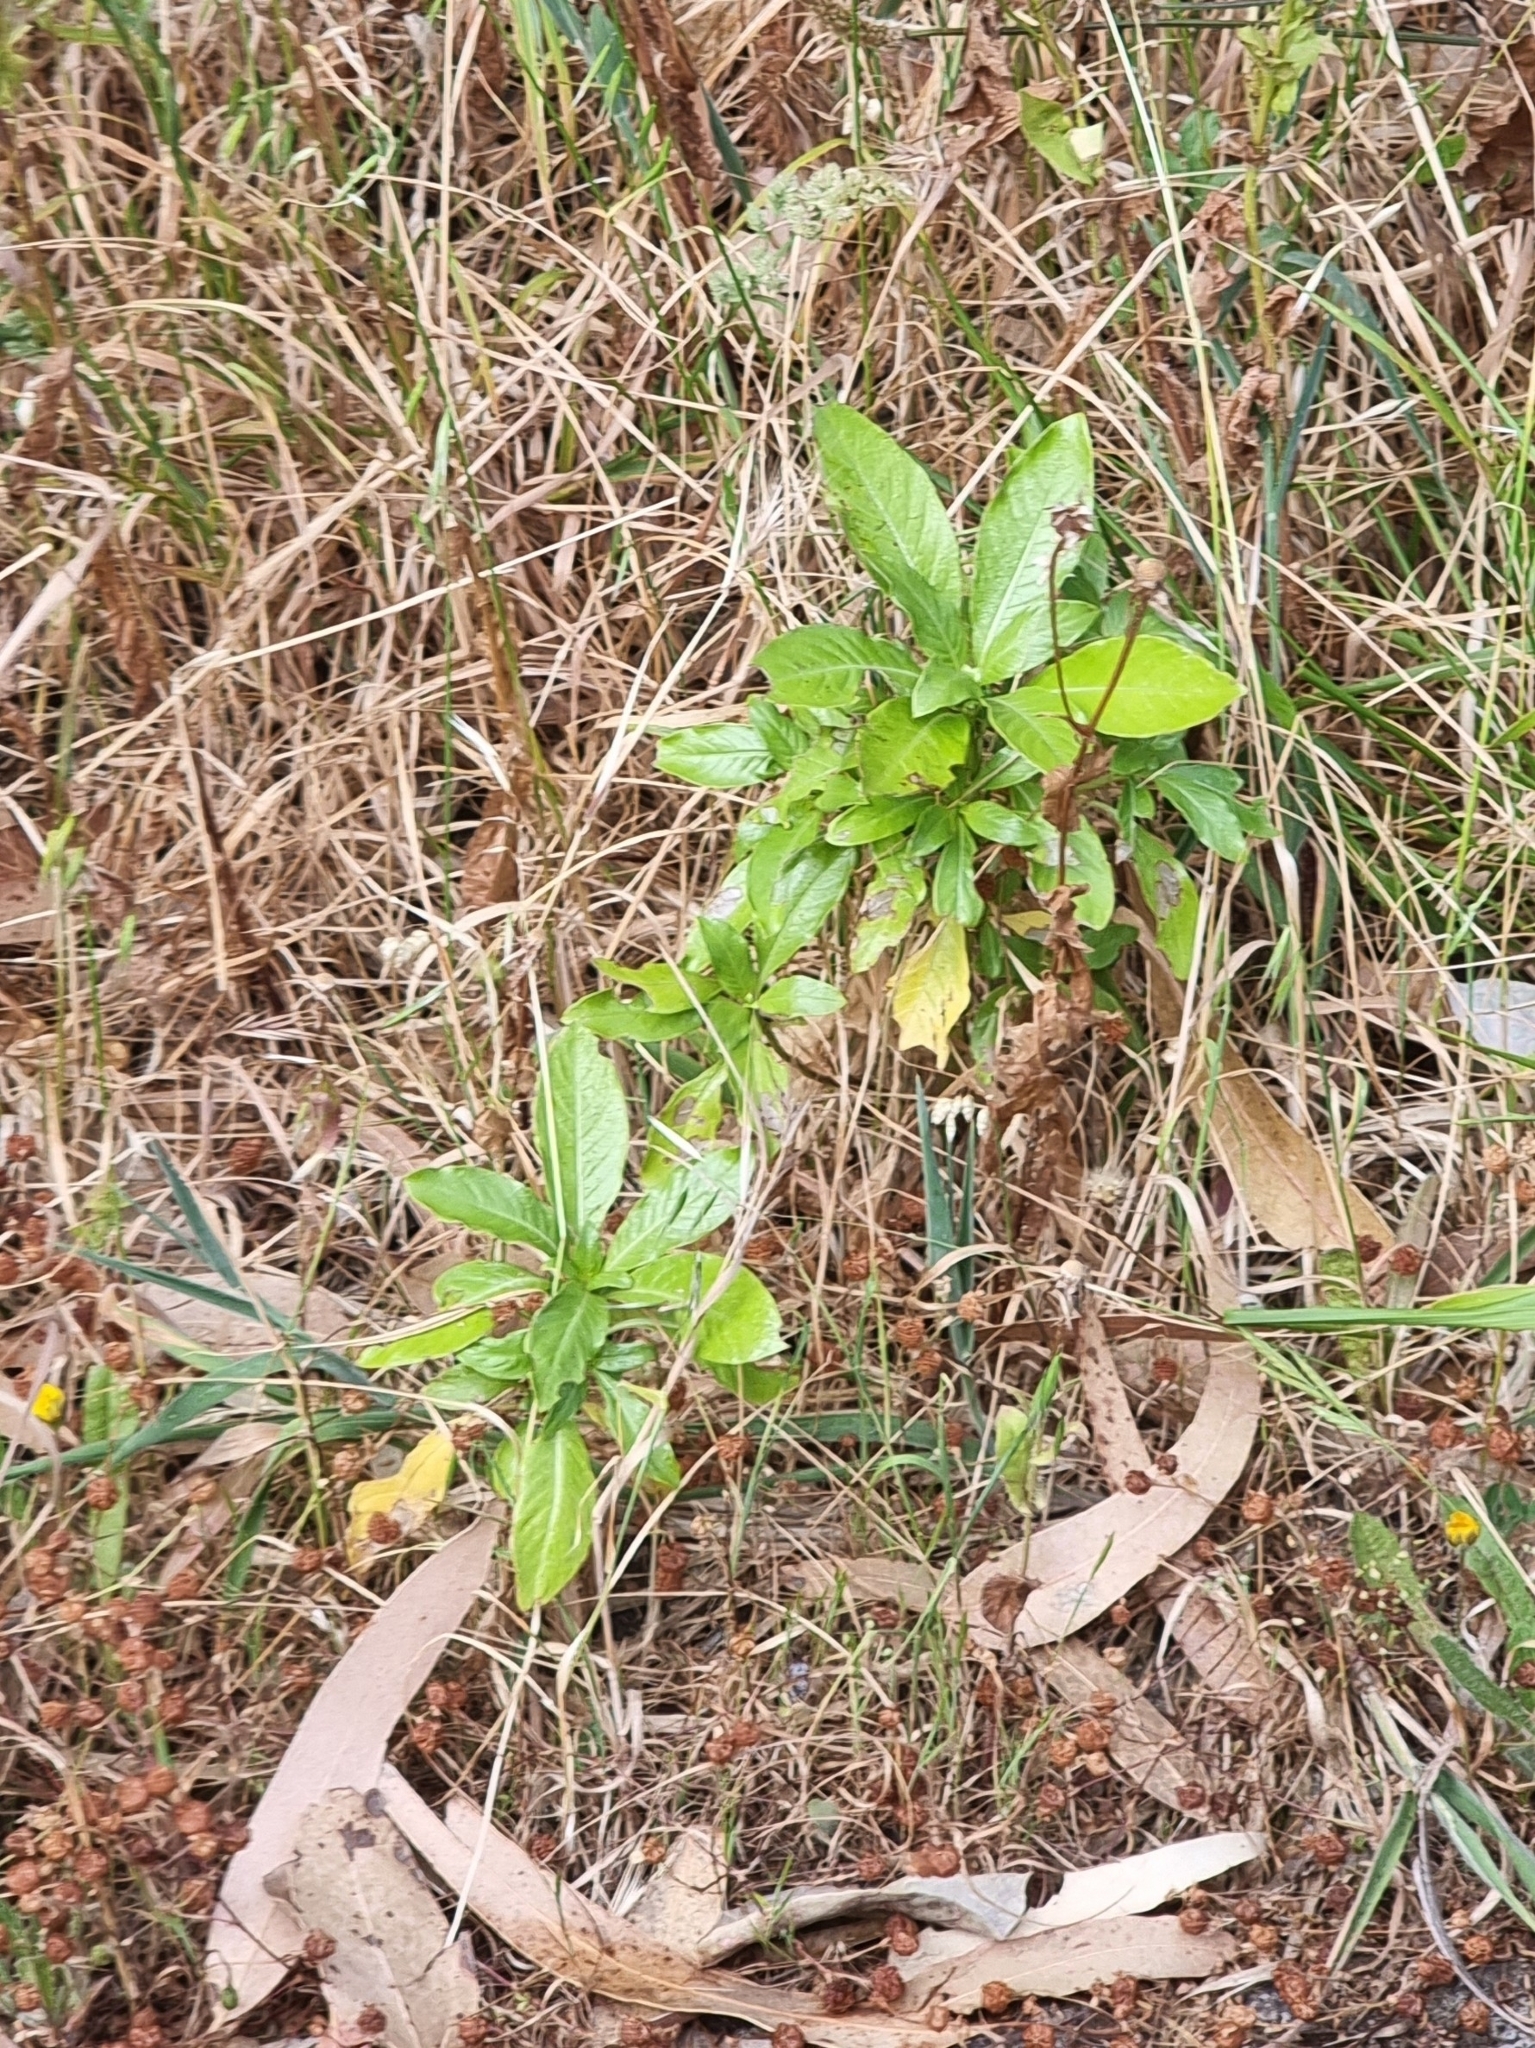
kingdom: Plantae
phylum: Tracheophyta
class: Magnoliopsida
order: Gentianales
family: Rubiaceae
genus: Phyllis
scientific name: Phyllis nobla
